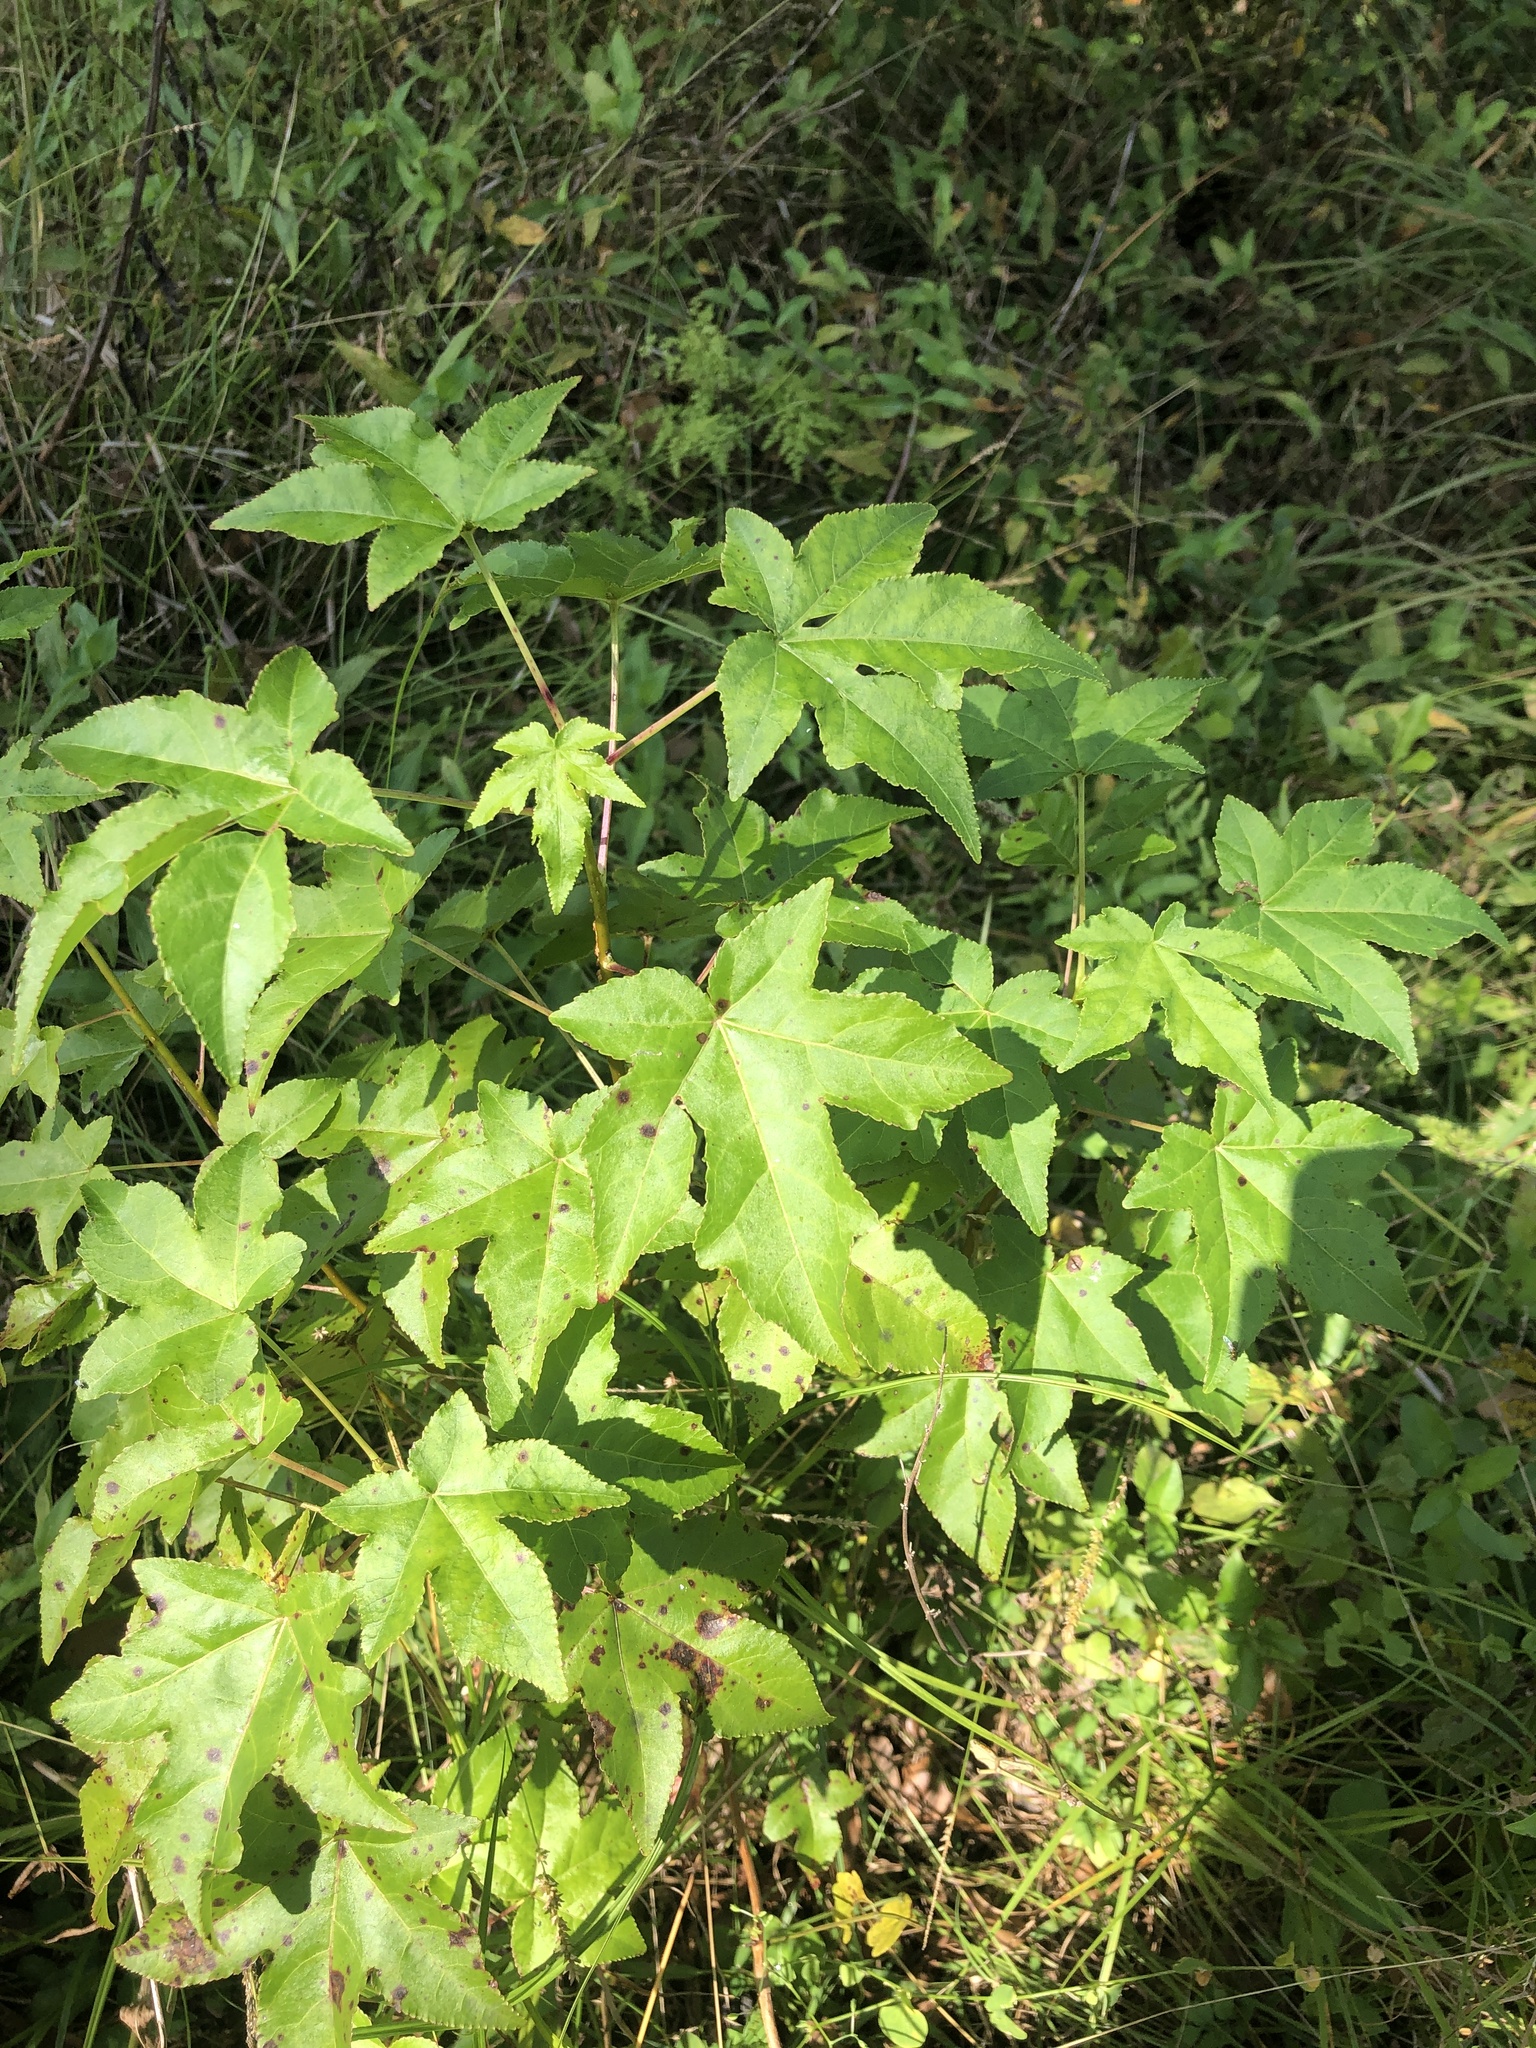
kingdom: Plantae
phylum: Tracheophyta
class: Magnoliopsida
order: Saxifragales
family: Altingiaceae
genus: Liquidambar
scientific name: Liquidambar styraciflua
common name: Sweet gum
